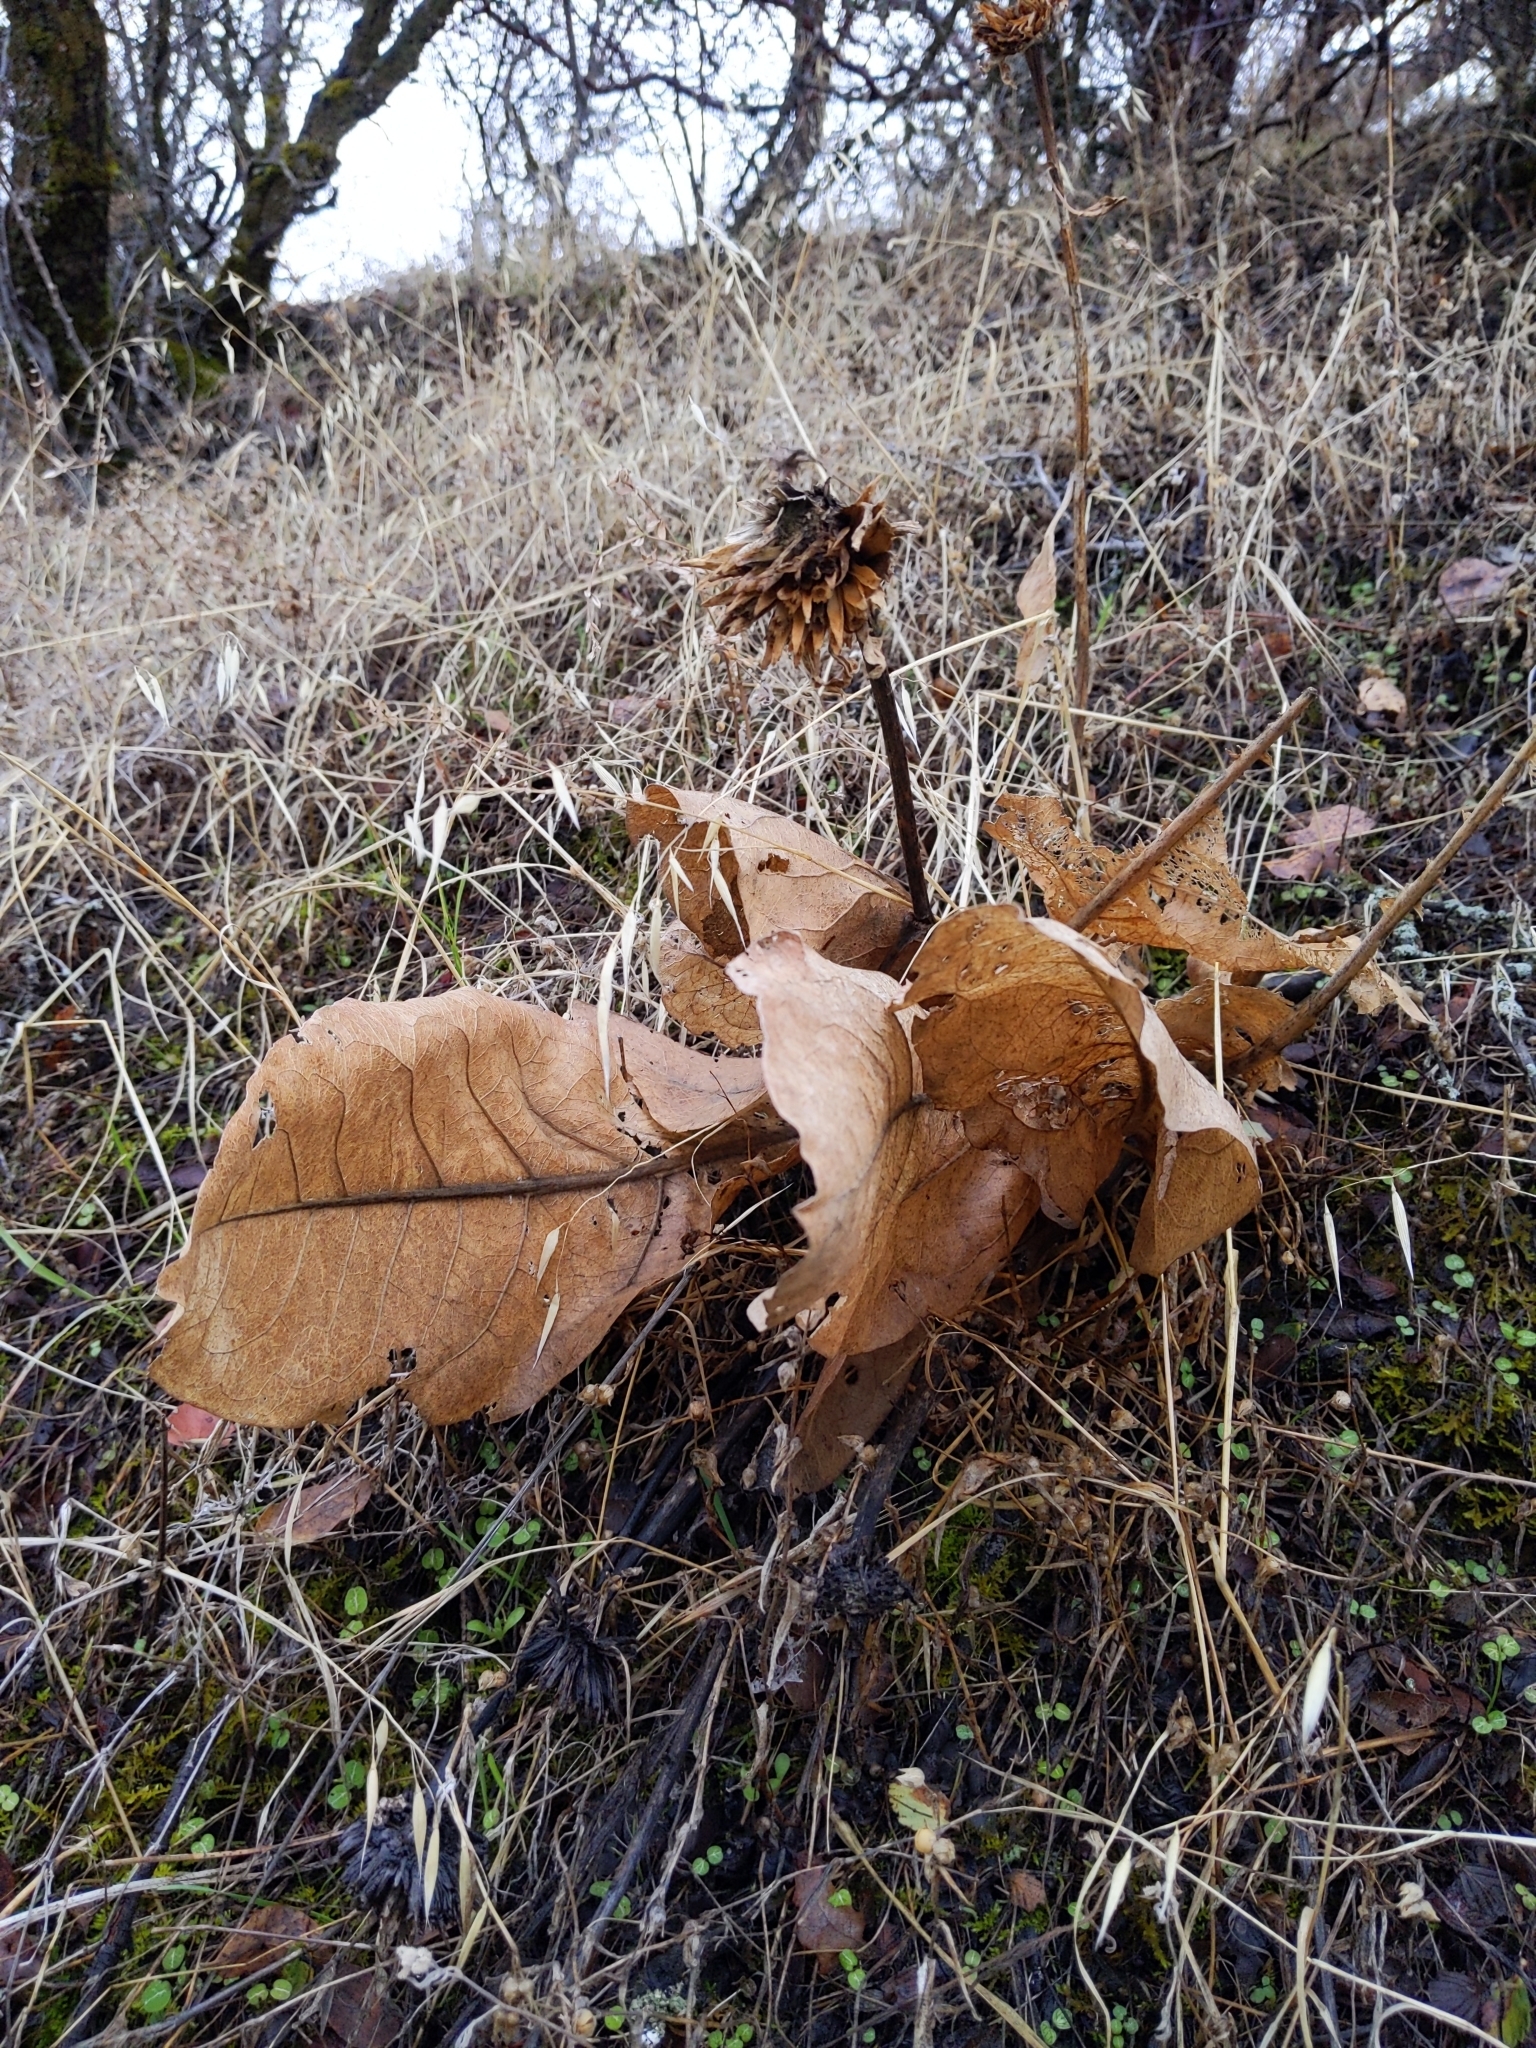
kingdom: Plantae
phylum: Tracheophyta
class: Magnoliopsida
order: Asterales
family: Asteraceae
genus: Wyethia
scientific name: Wyethia glabra
